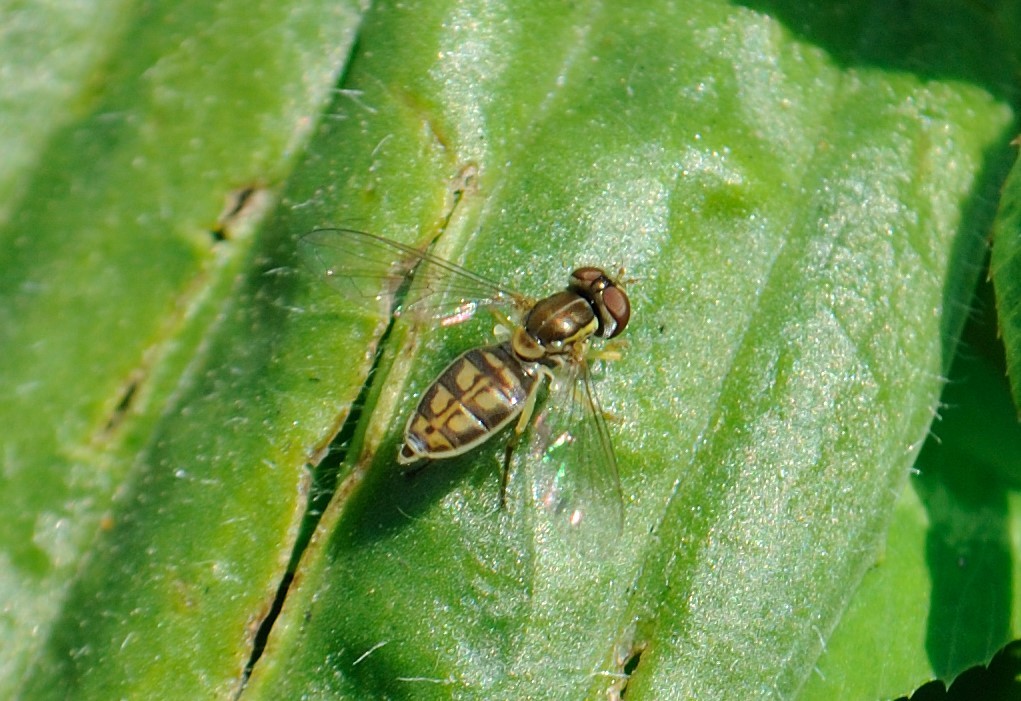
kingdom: Animalia
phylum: Arthropoda
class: Insecta
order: Diptera
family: Syrphidae
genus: Toxomerus
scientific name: Toxomerus marginatus
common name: Syrphid fly
